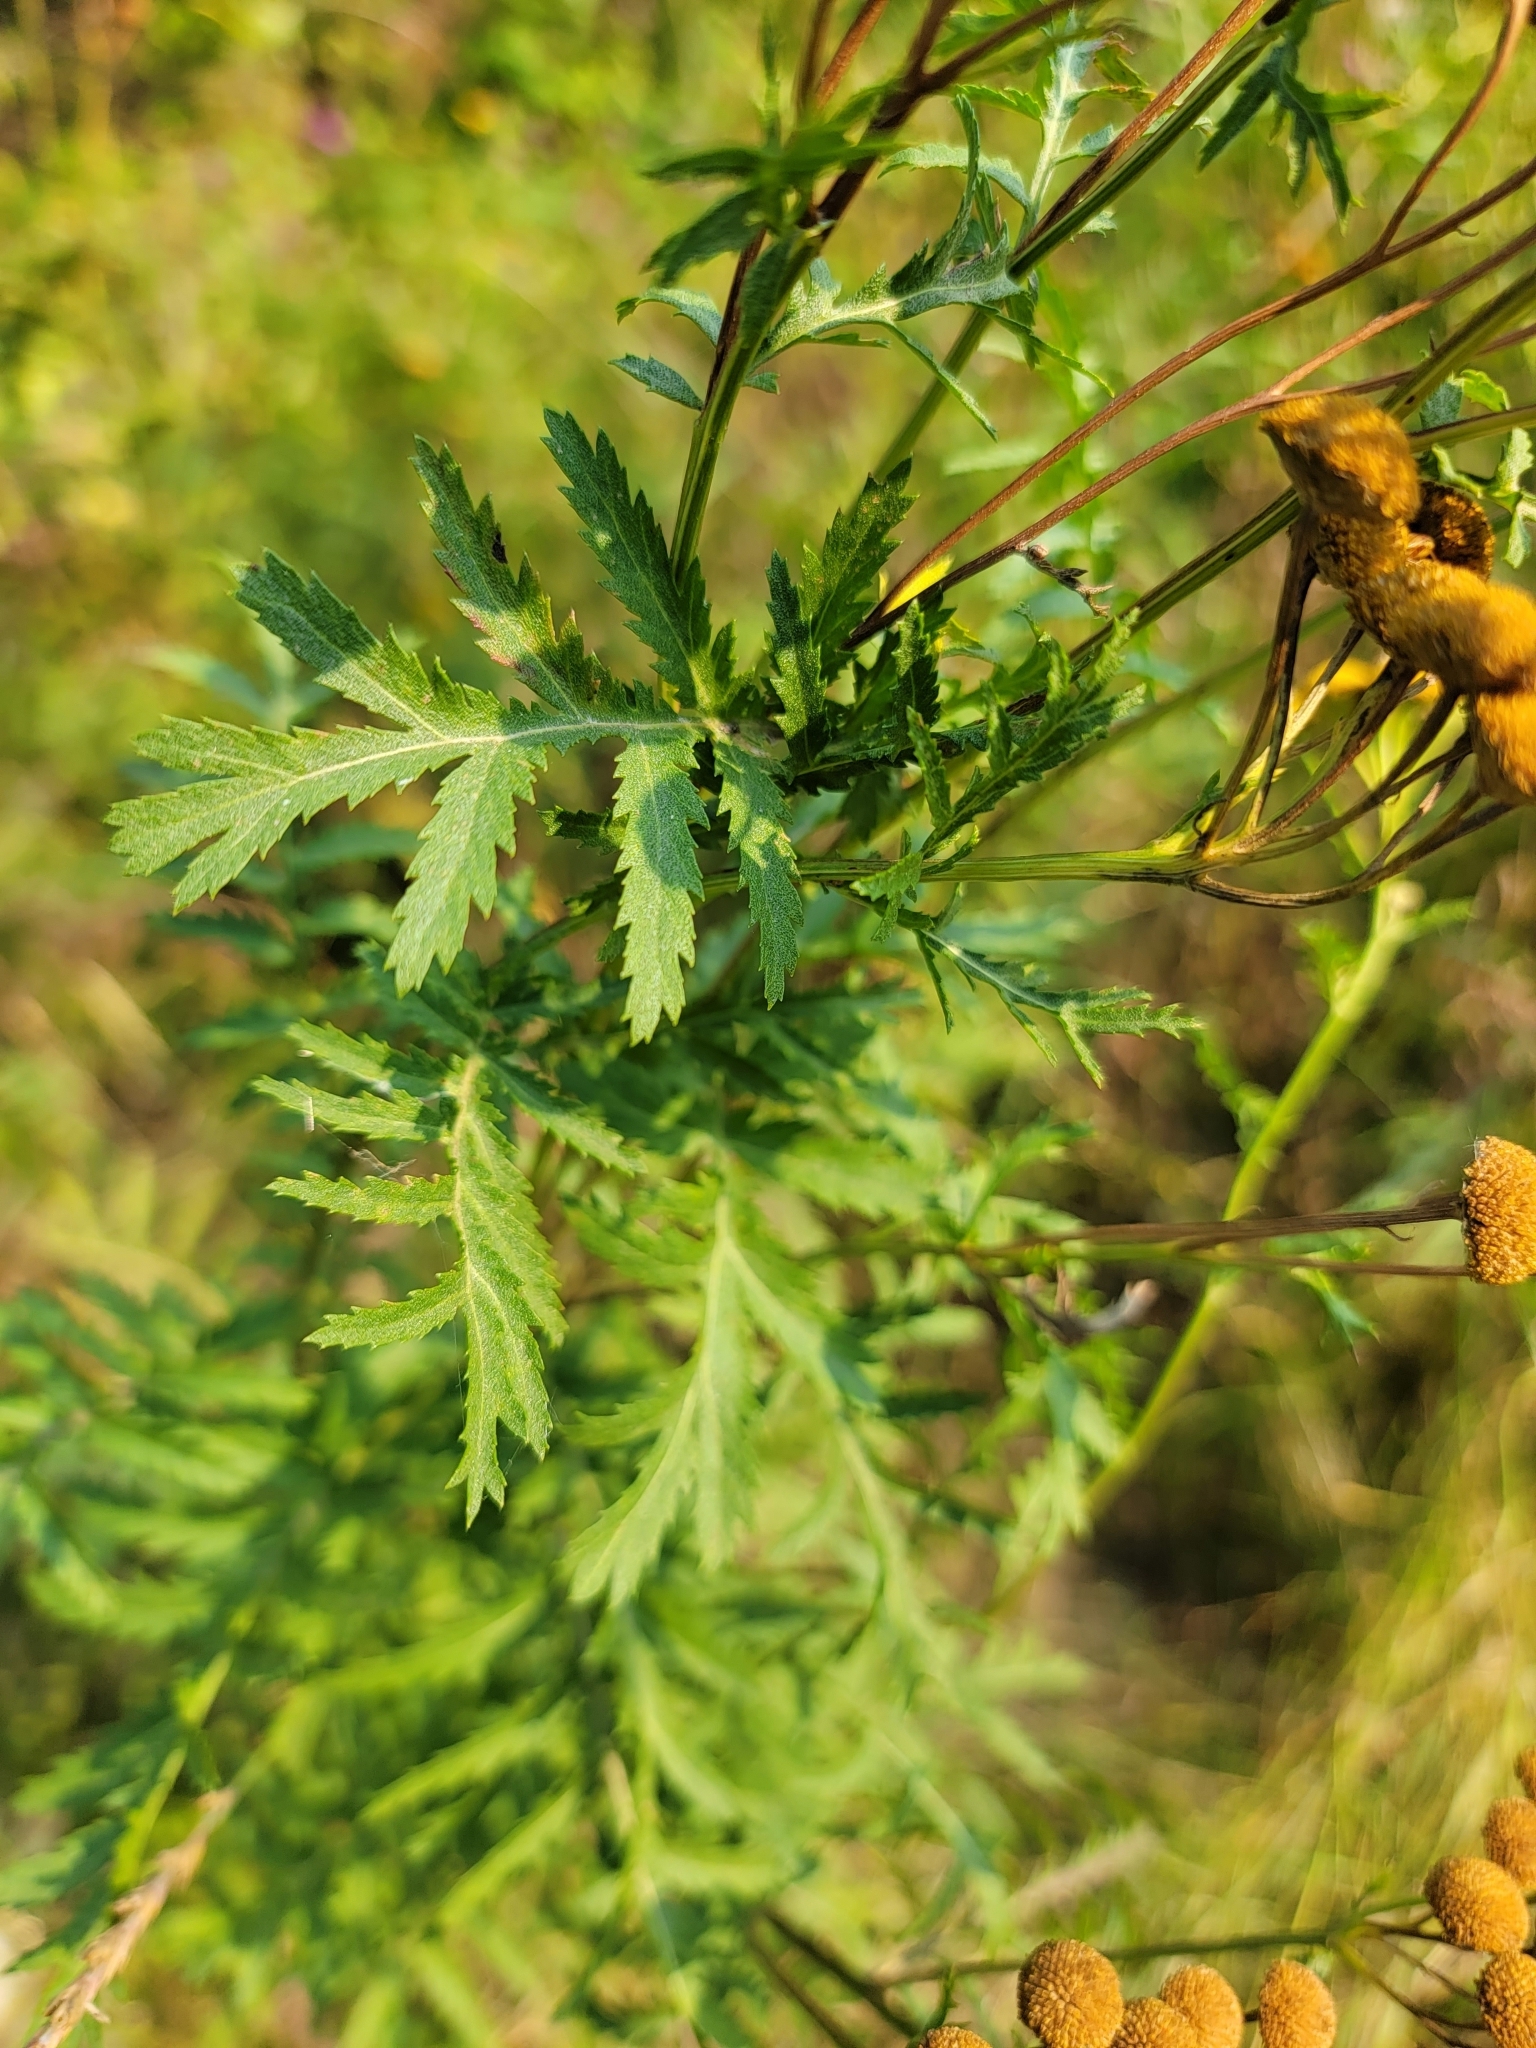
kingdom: Plantae
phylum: Tracheophyta
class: Magnoliopsida
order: Asterales
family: Asteraceae
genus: Tanacetum
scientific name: Tanacetum vulgare
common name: Common tansy
